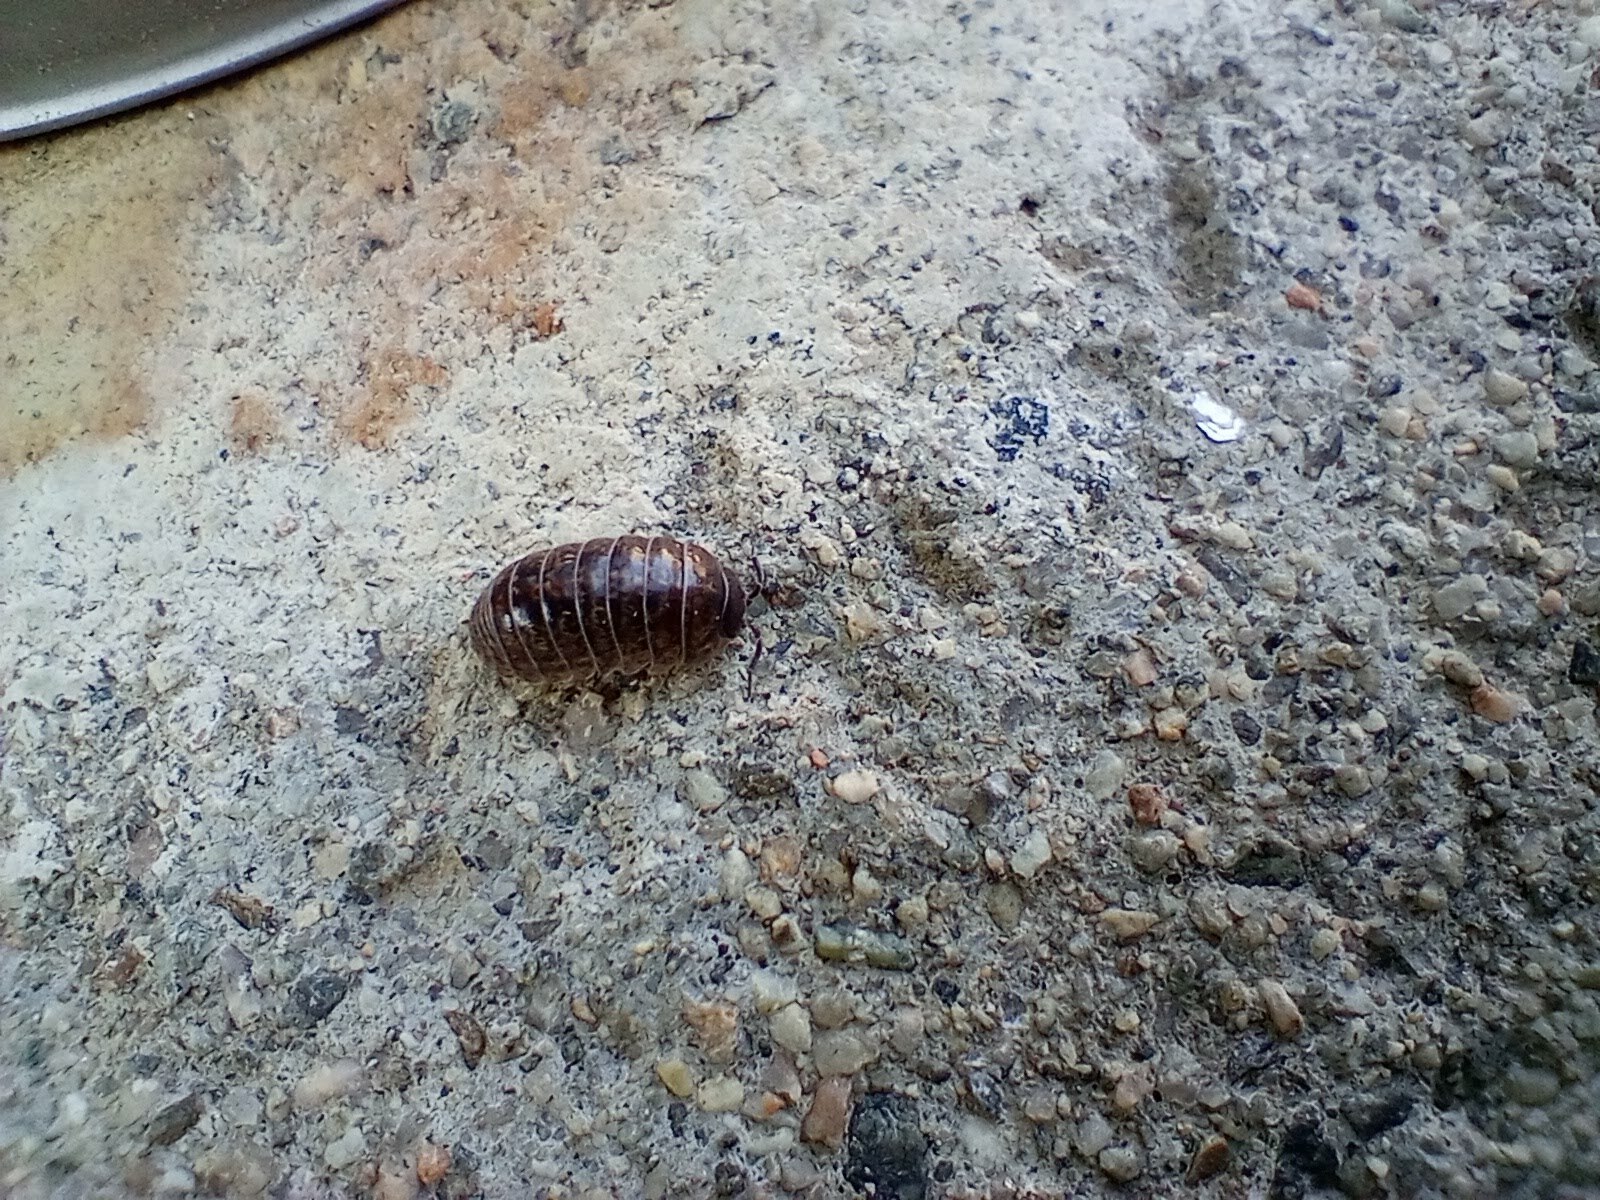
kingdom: Animalia
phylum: Arthropoda
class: Malacostraca
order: Isopoda
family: Armadillidiidae
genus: Armadillidium
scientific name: Armadillidium vulgare
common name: Common pill woodlouse
